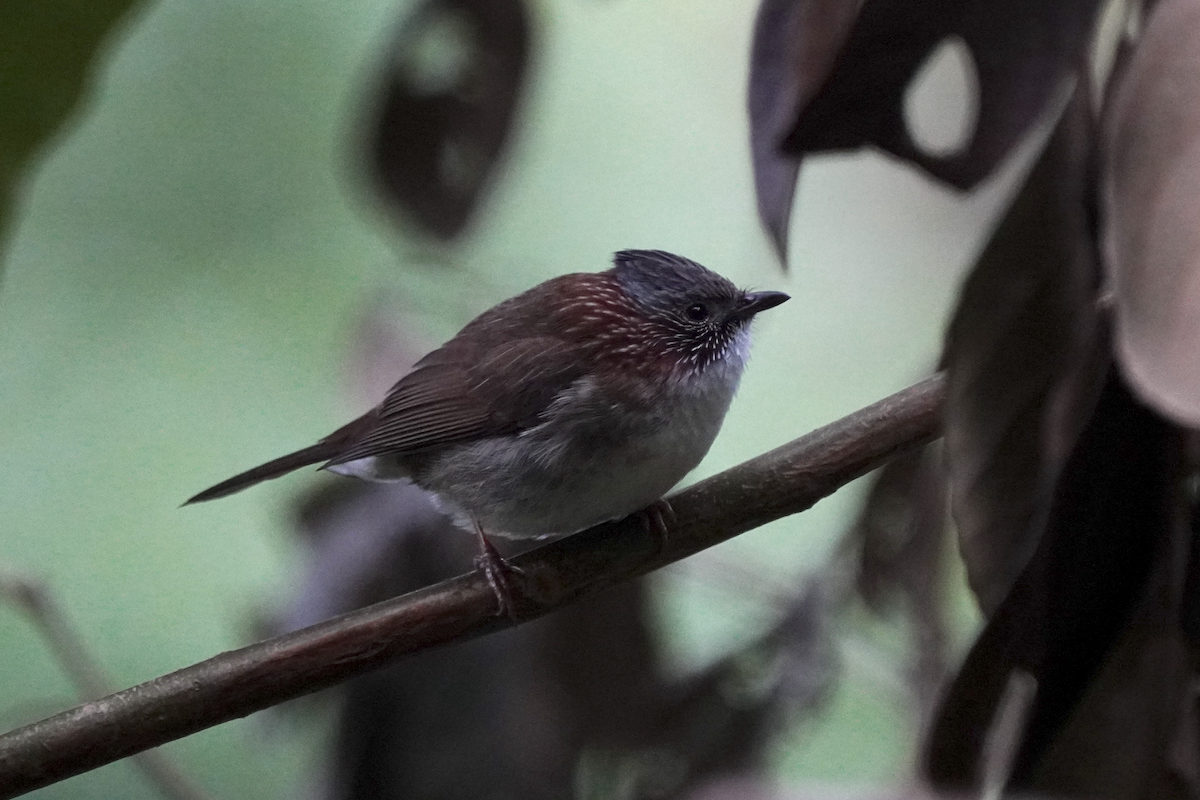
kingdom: Animalia
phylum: Chordata
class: Aves
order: Passeriformes
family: Zosteropidae
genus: Yuhina
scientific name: Yuhina torqueola
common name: Indochinese yuhina
